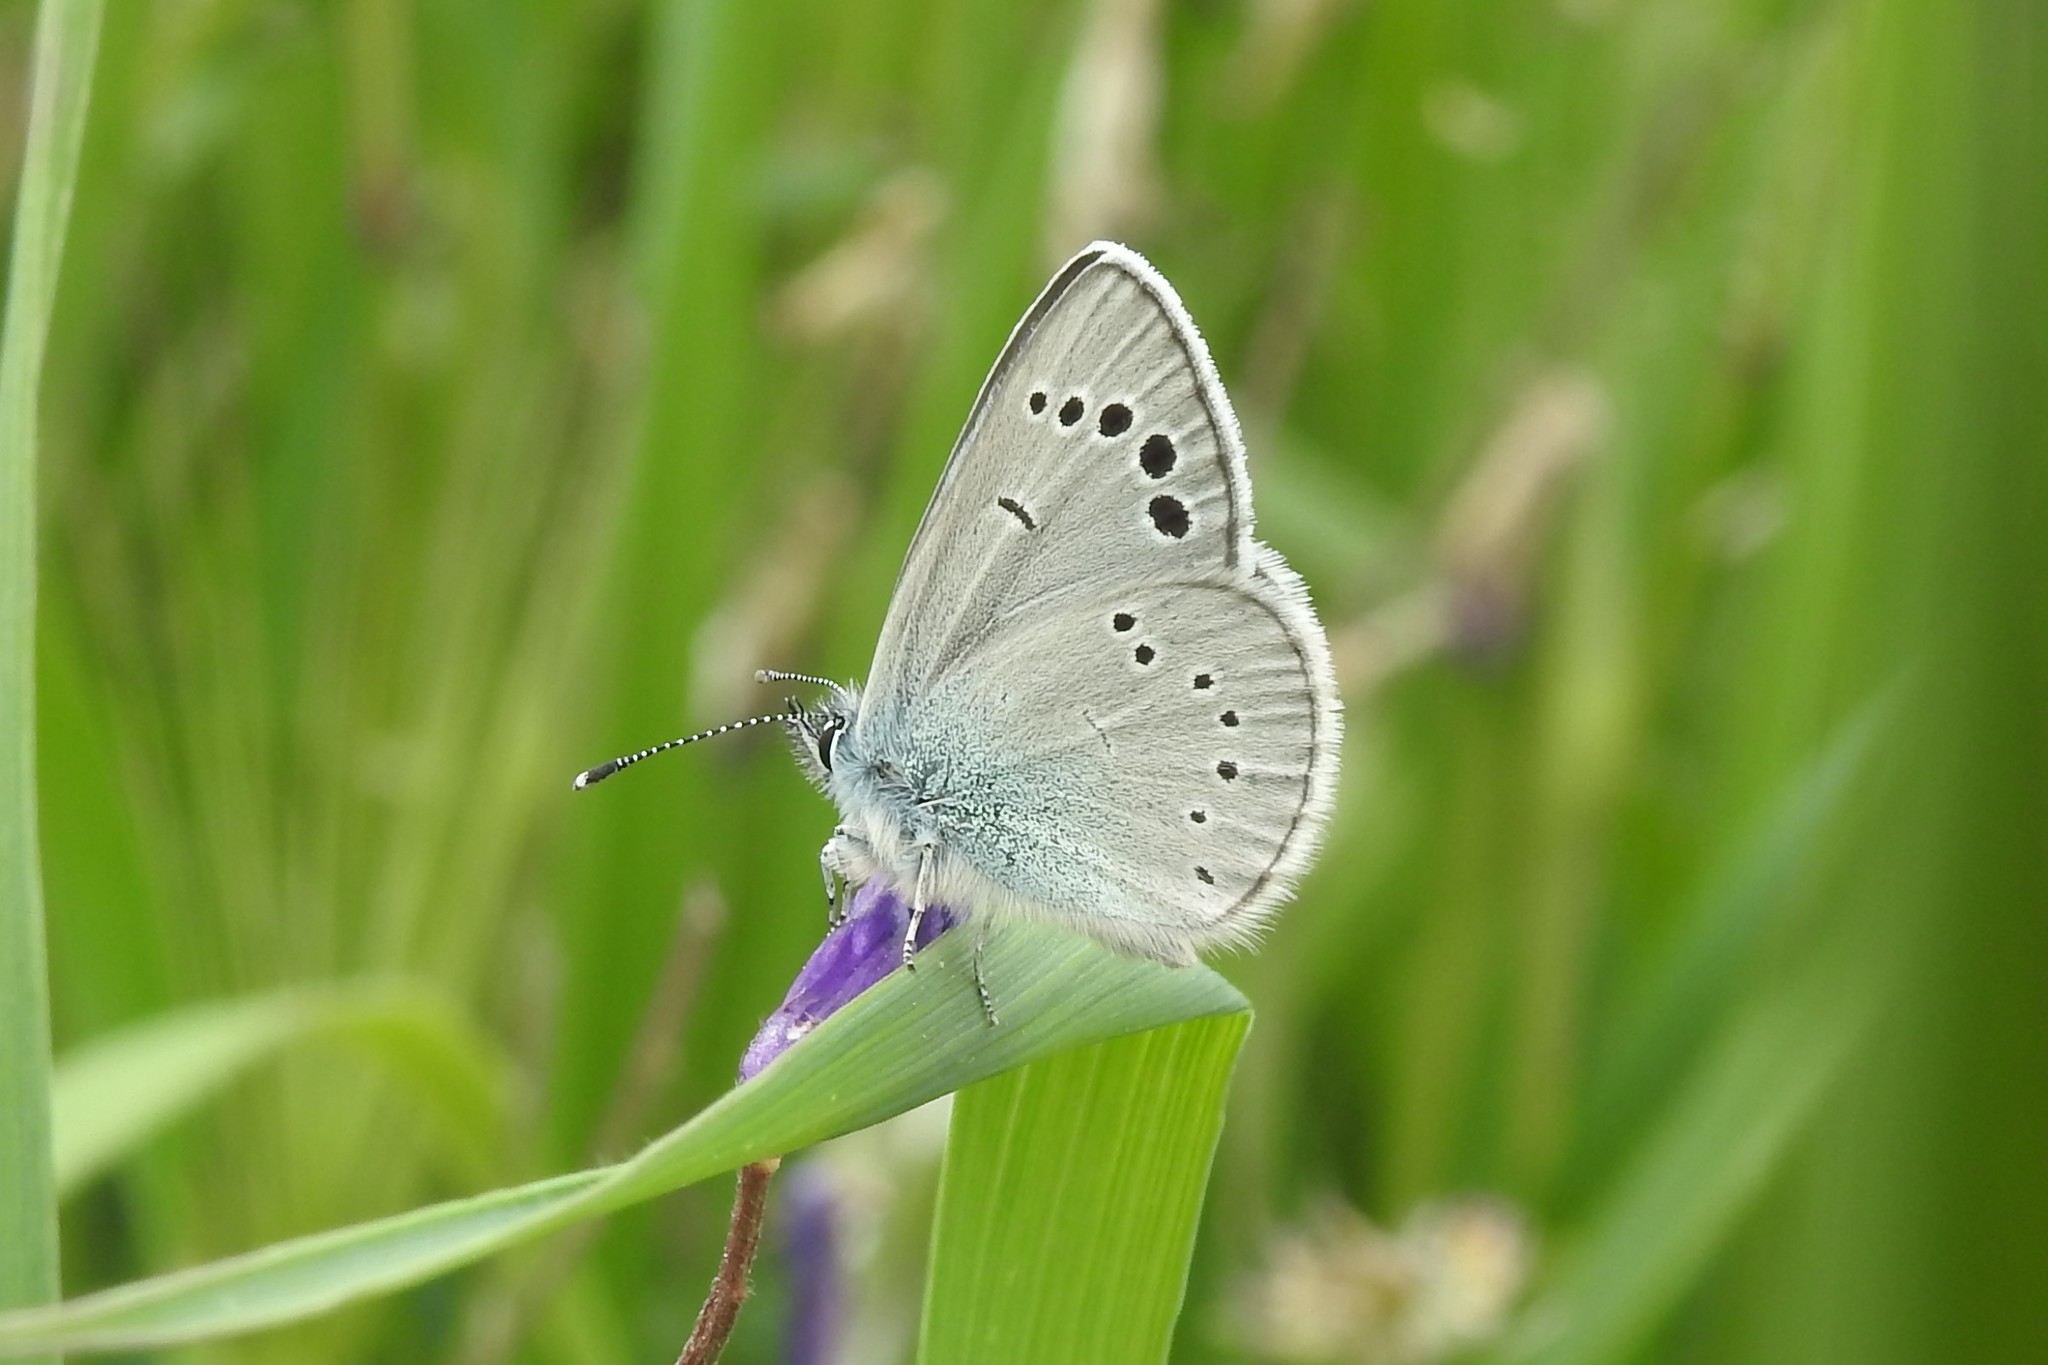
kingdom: Animalia
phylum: Arthropoda
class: Insecta
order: Lepidoptera
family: Lycaenidae
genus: Glaucopsyche
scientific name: Glaucopsyche alexis
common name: Green-underside blue
